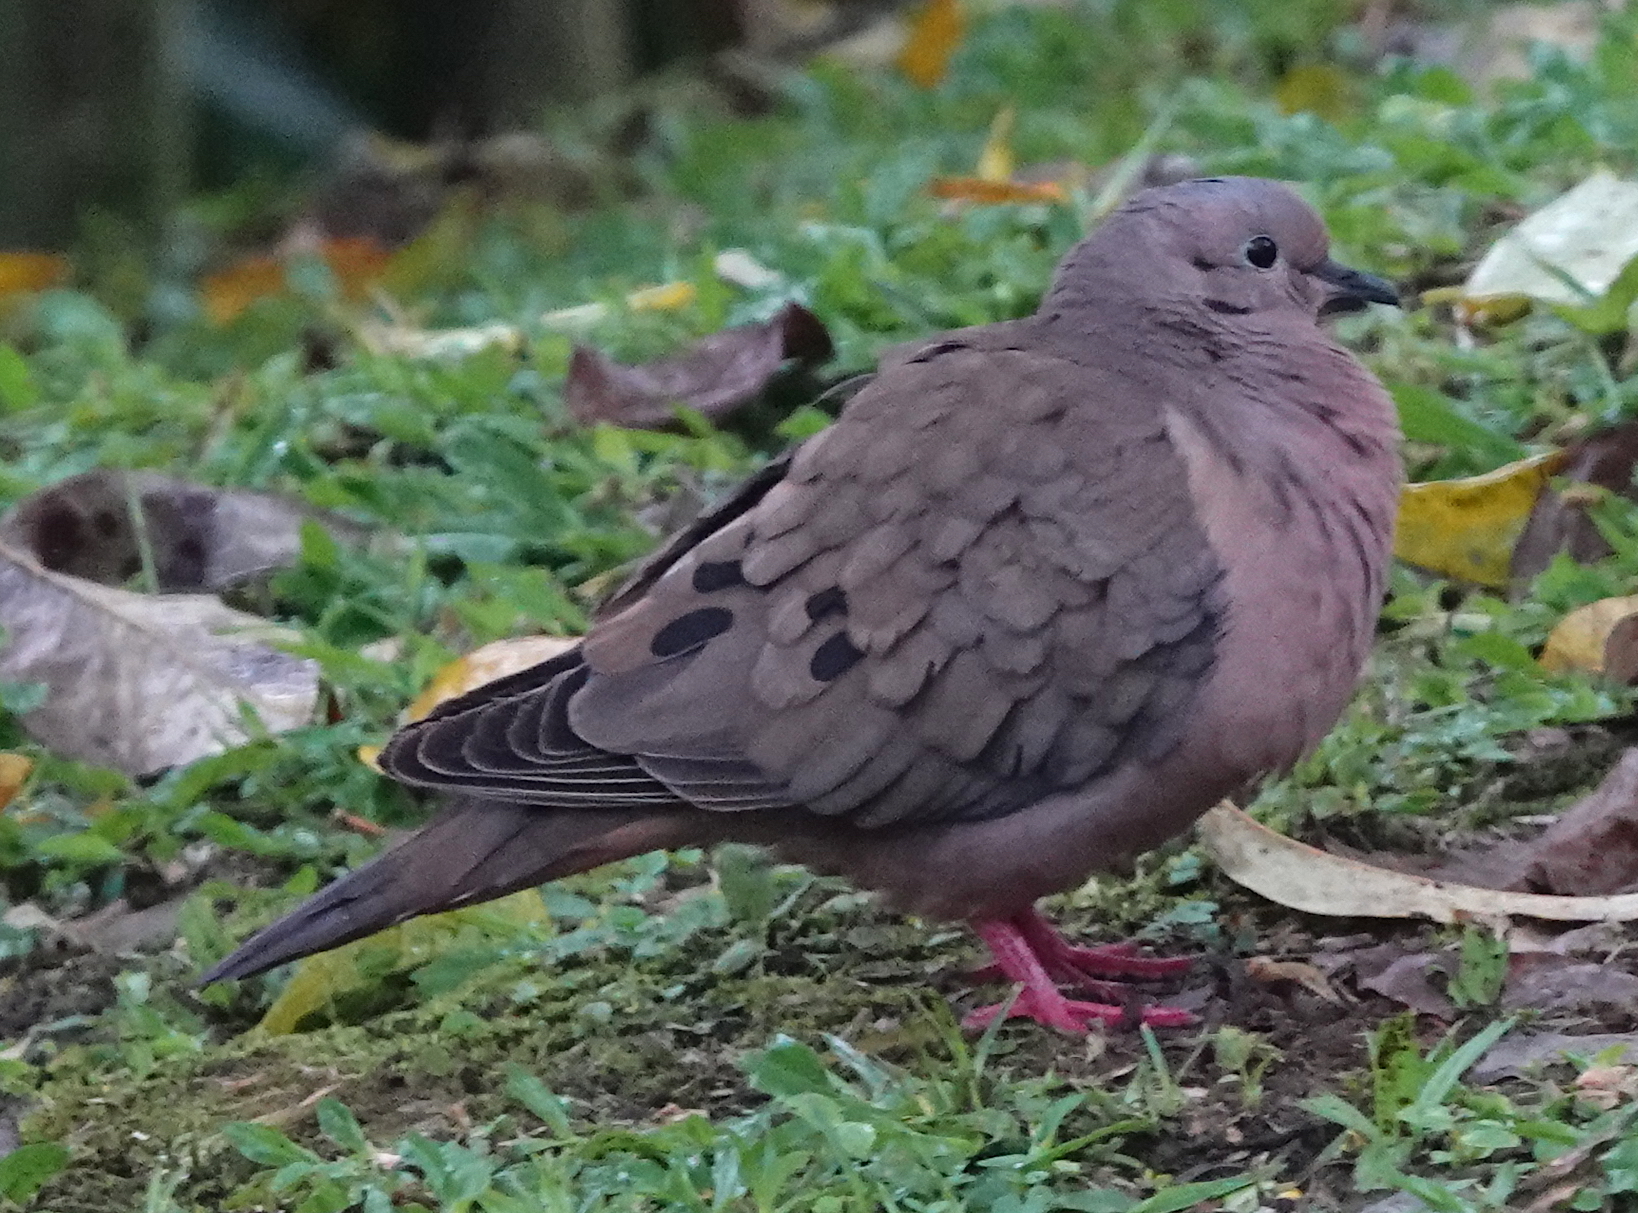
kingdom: Animalia
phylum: Chordata
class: Aves
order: Columbiformes
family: Columbidae
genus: Zenaida
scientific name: Zenaida auriculata
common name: Eared dove
